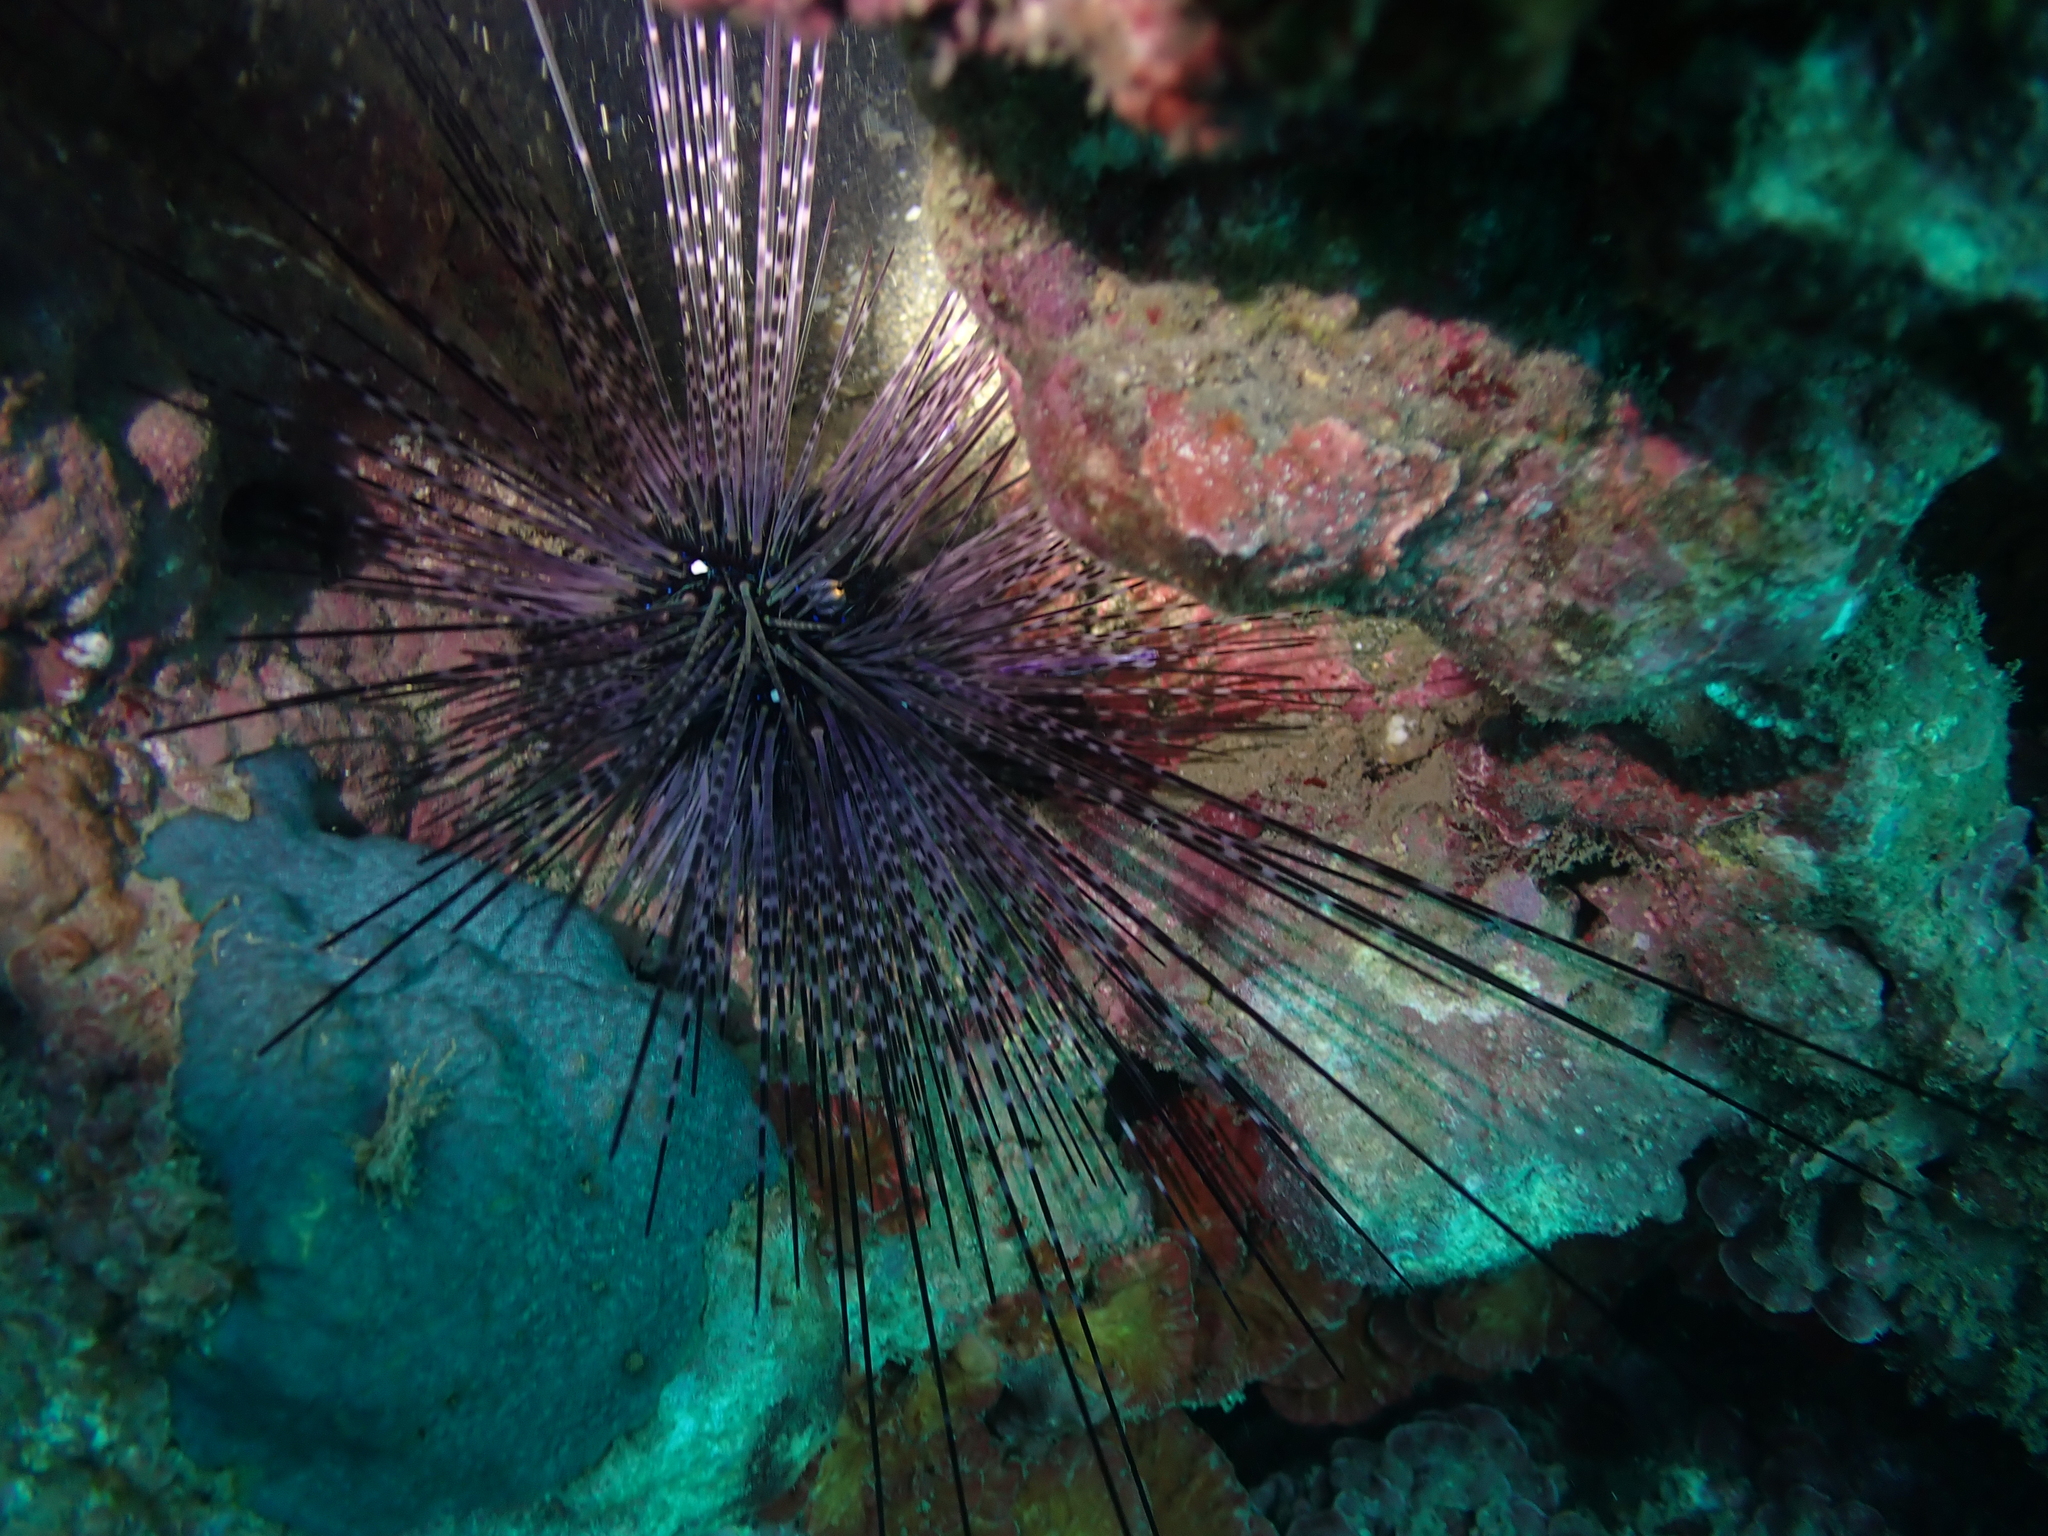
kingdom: Animalia
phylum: Echinodermata
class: Echinoidea
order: Diadematoida
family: Diadematidae
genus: Diadema
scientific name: Diadema setosum
